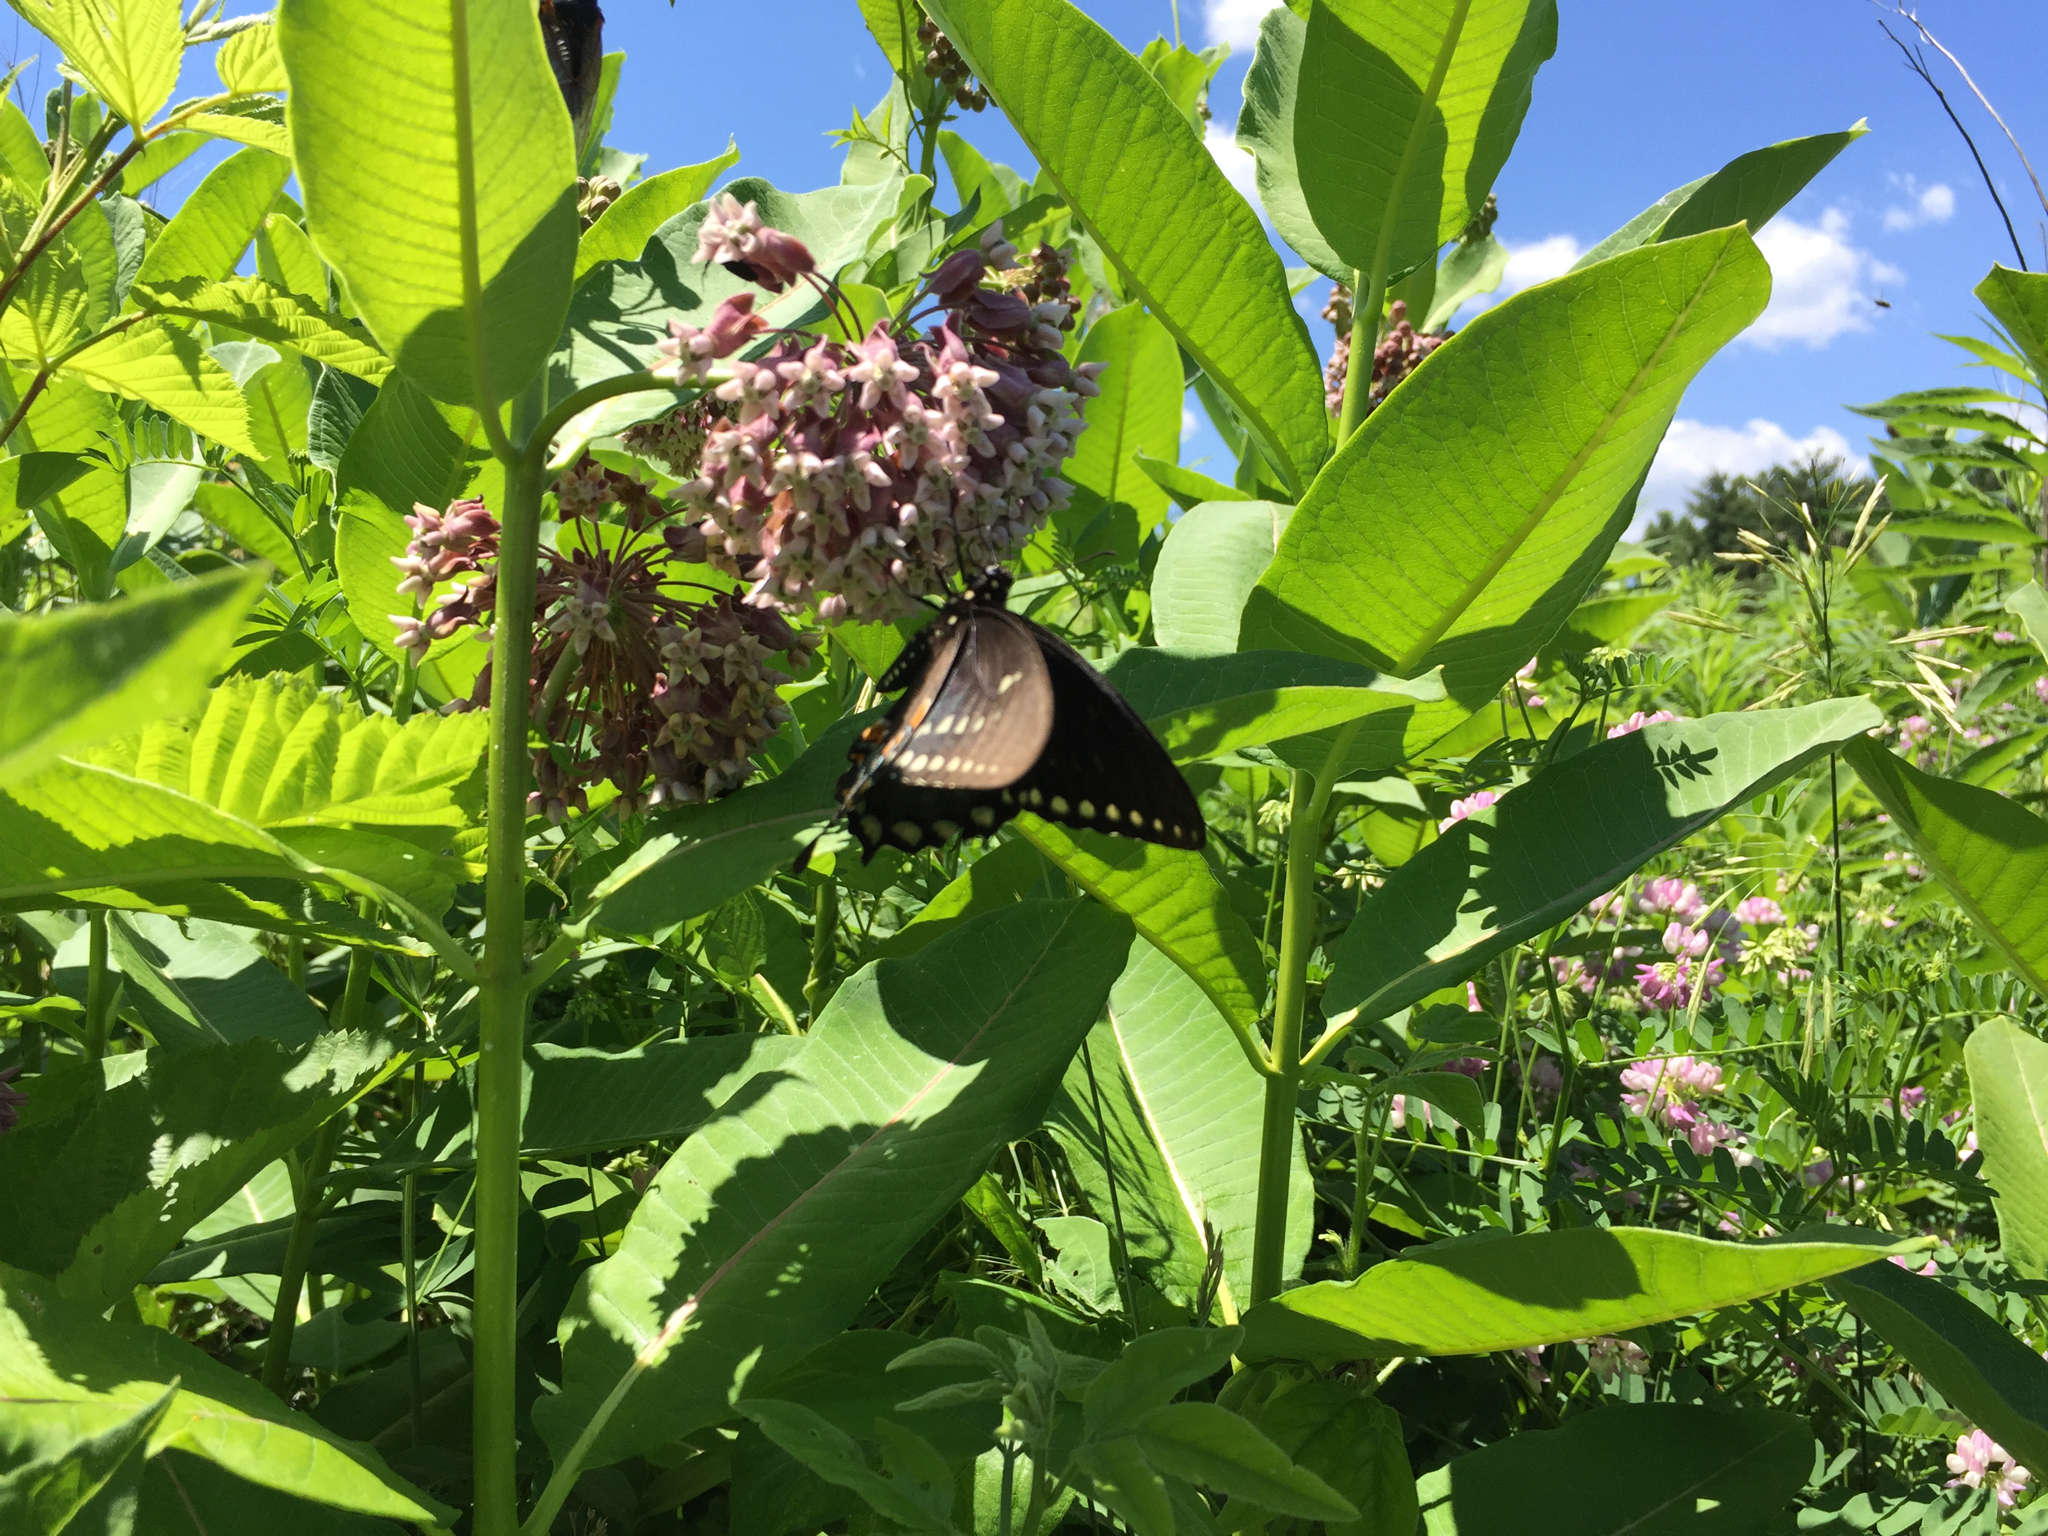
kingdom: Animalia
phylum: Arthropoda
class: Insecta
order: Lepidoptera
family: Papilionidae
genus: Papilio
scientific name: Papilio troilus
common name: Spicebush swallowtail
